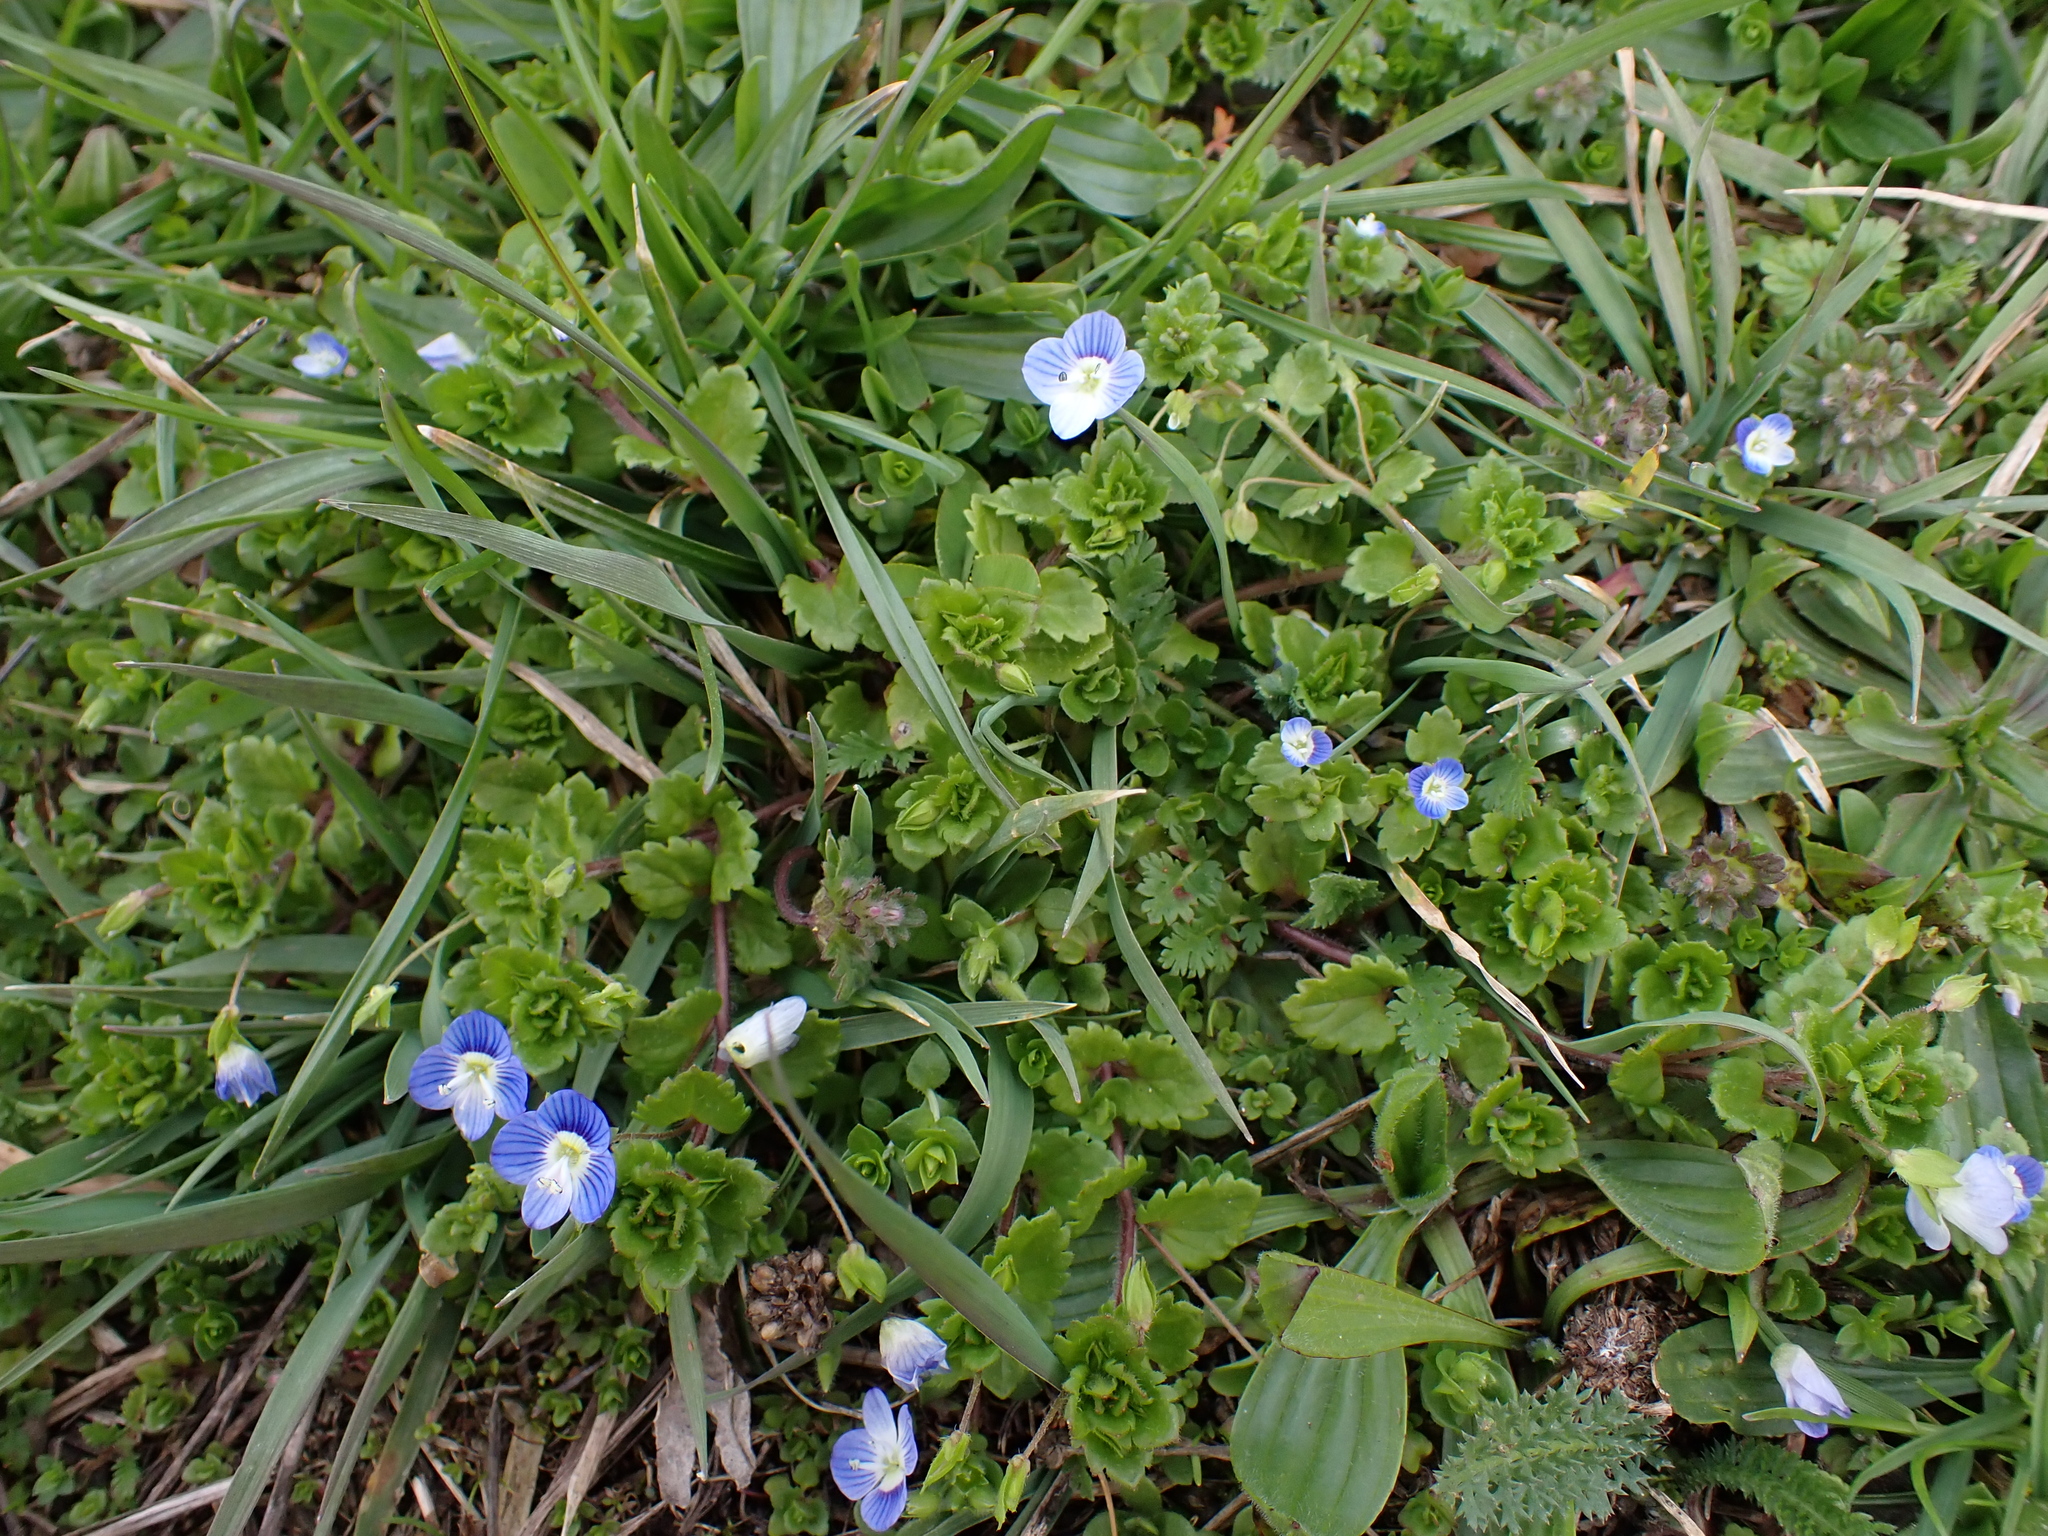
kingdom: Plantae
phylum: Tracheophyta
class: Magnoliopsida
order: Lamiales
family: Plantaginaceae
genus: Veronica
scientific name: Veronica persica
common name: Common field-speedwell
